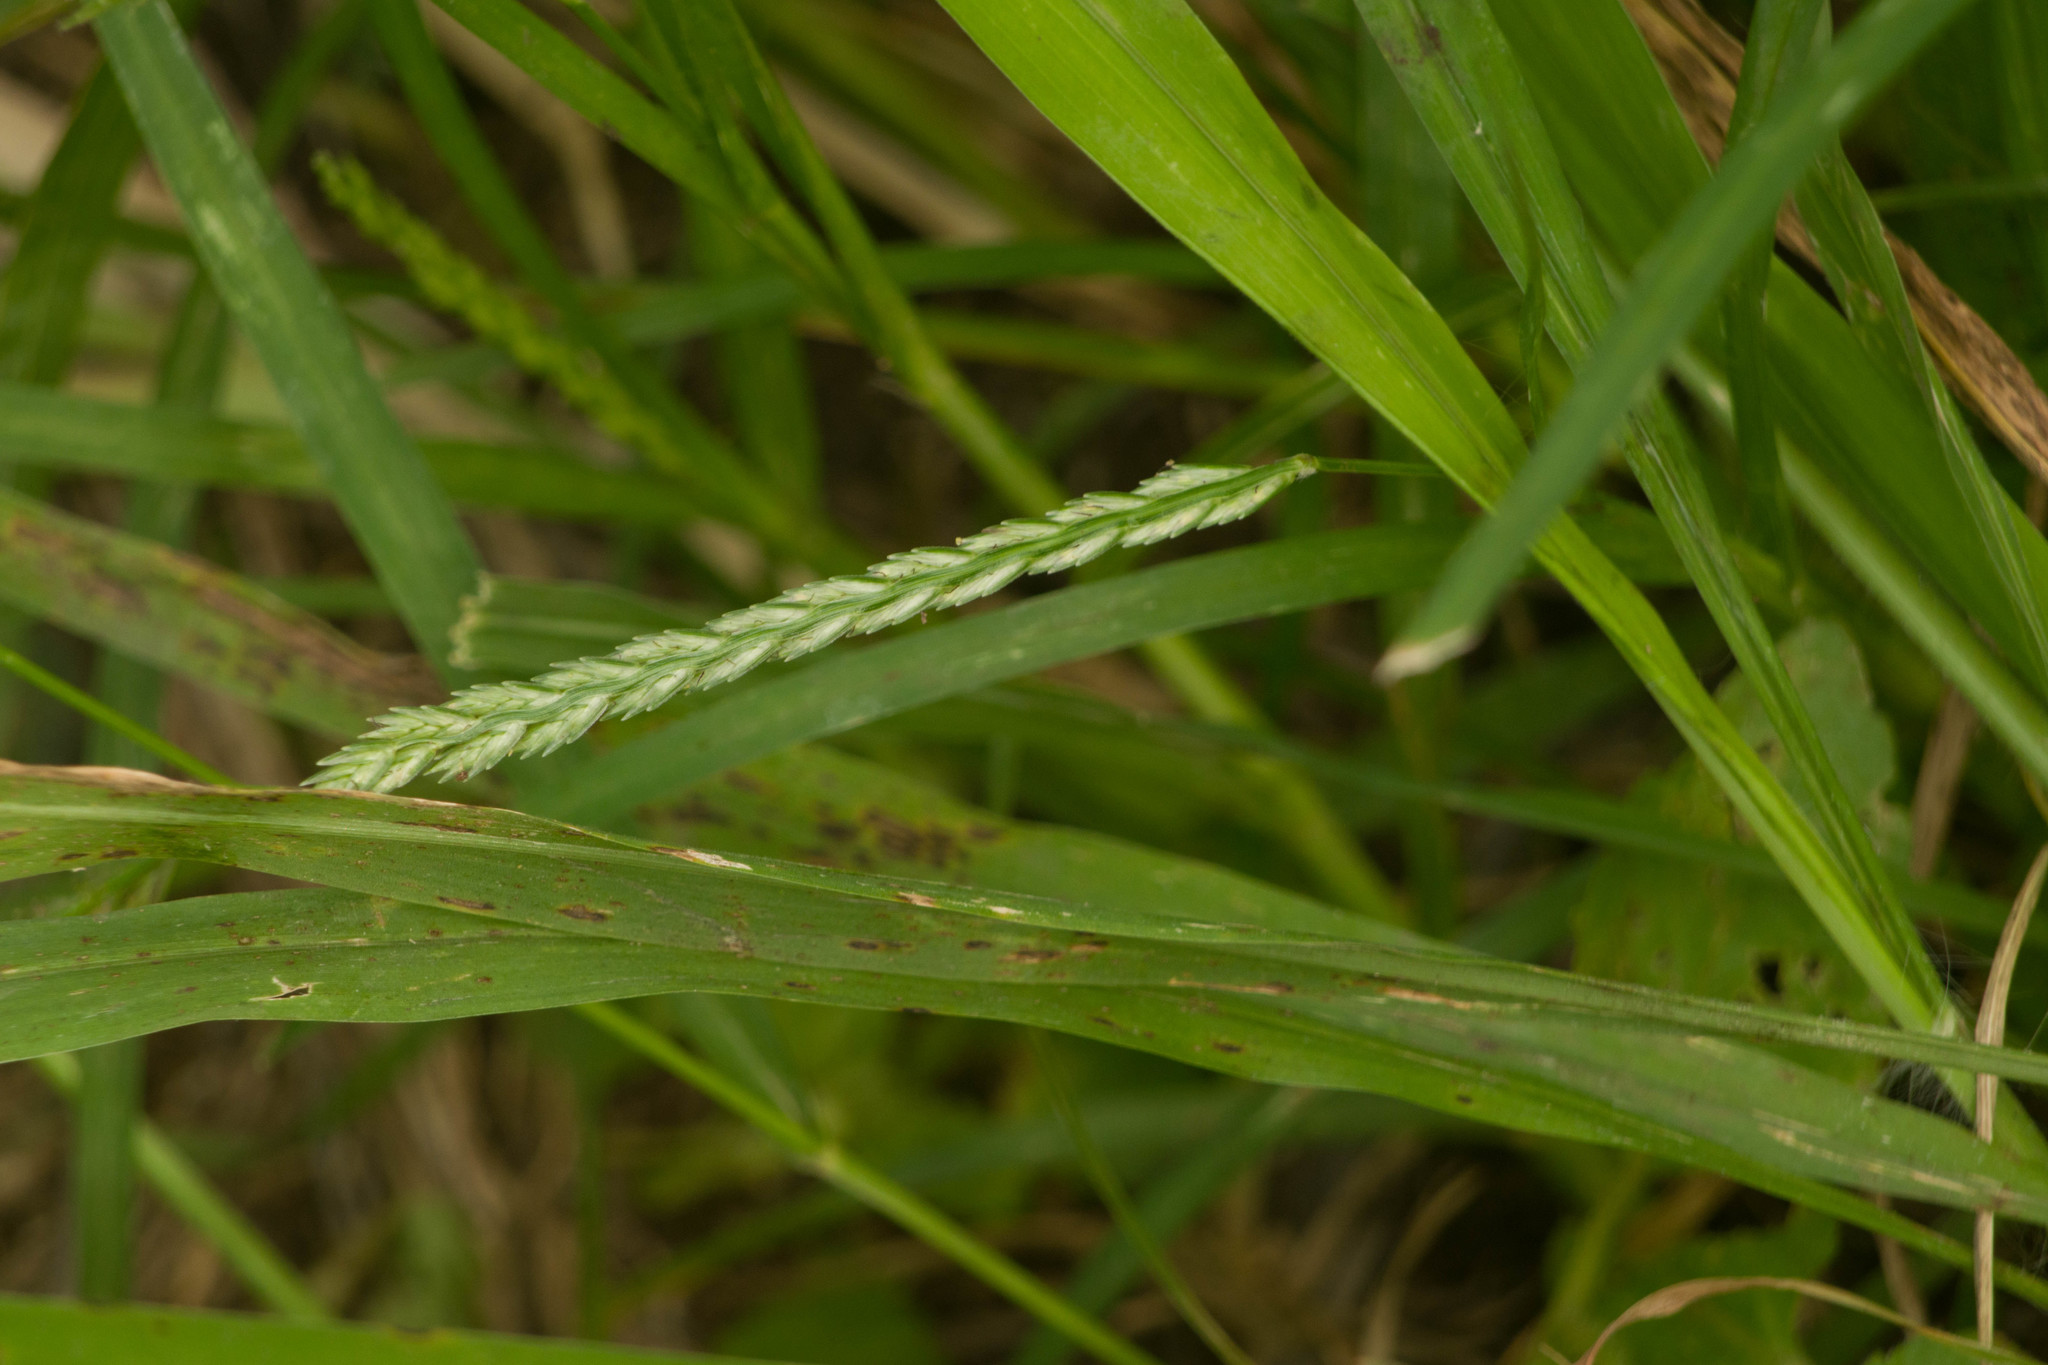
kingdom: Plantae
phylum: Tracheophyta
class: Liliopsida
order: Poales
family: Poaceae
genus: Eleusine
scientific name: Eleusine indica
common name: Yard-grass
